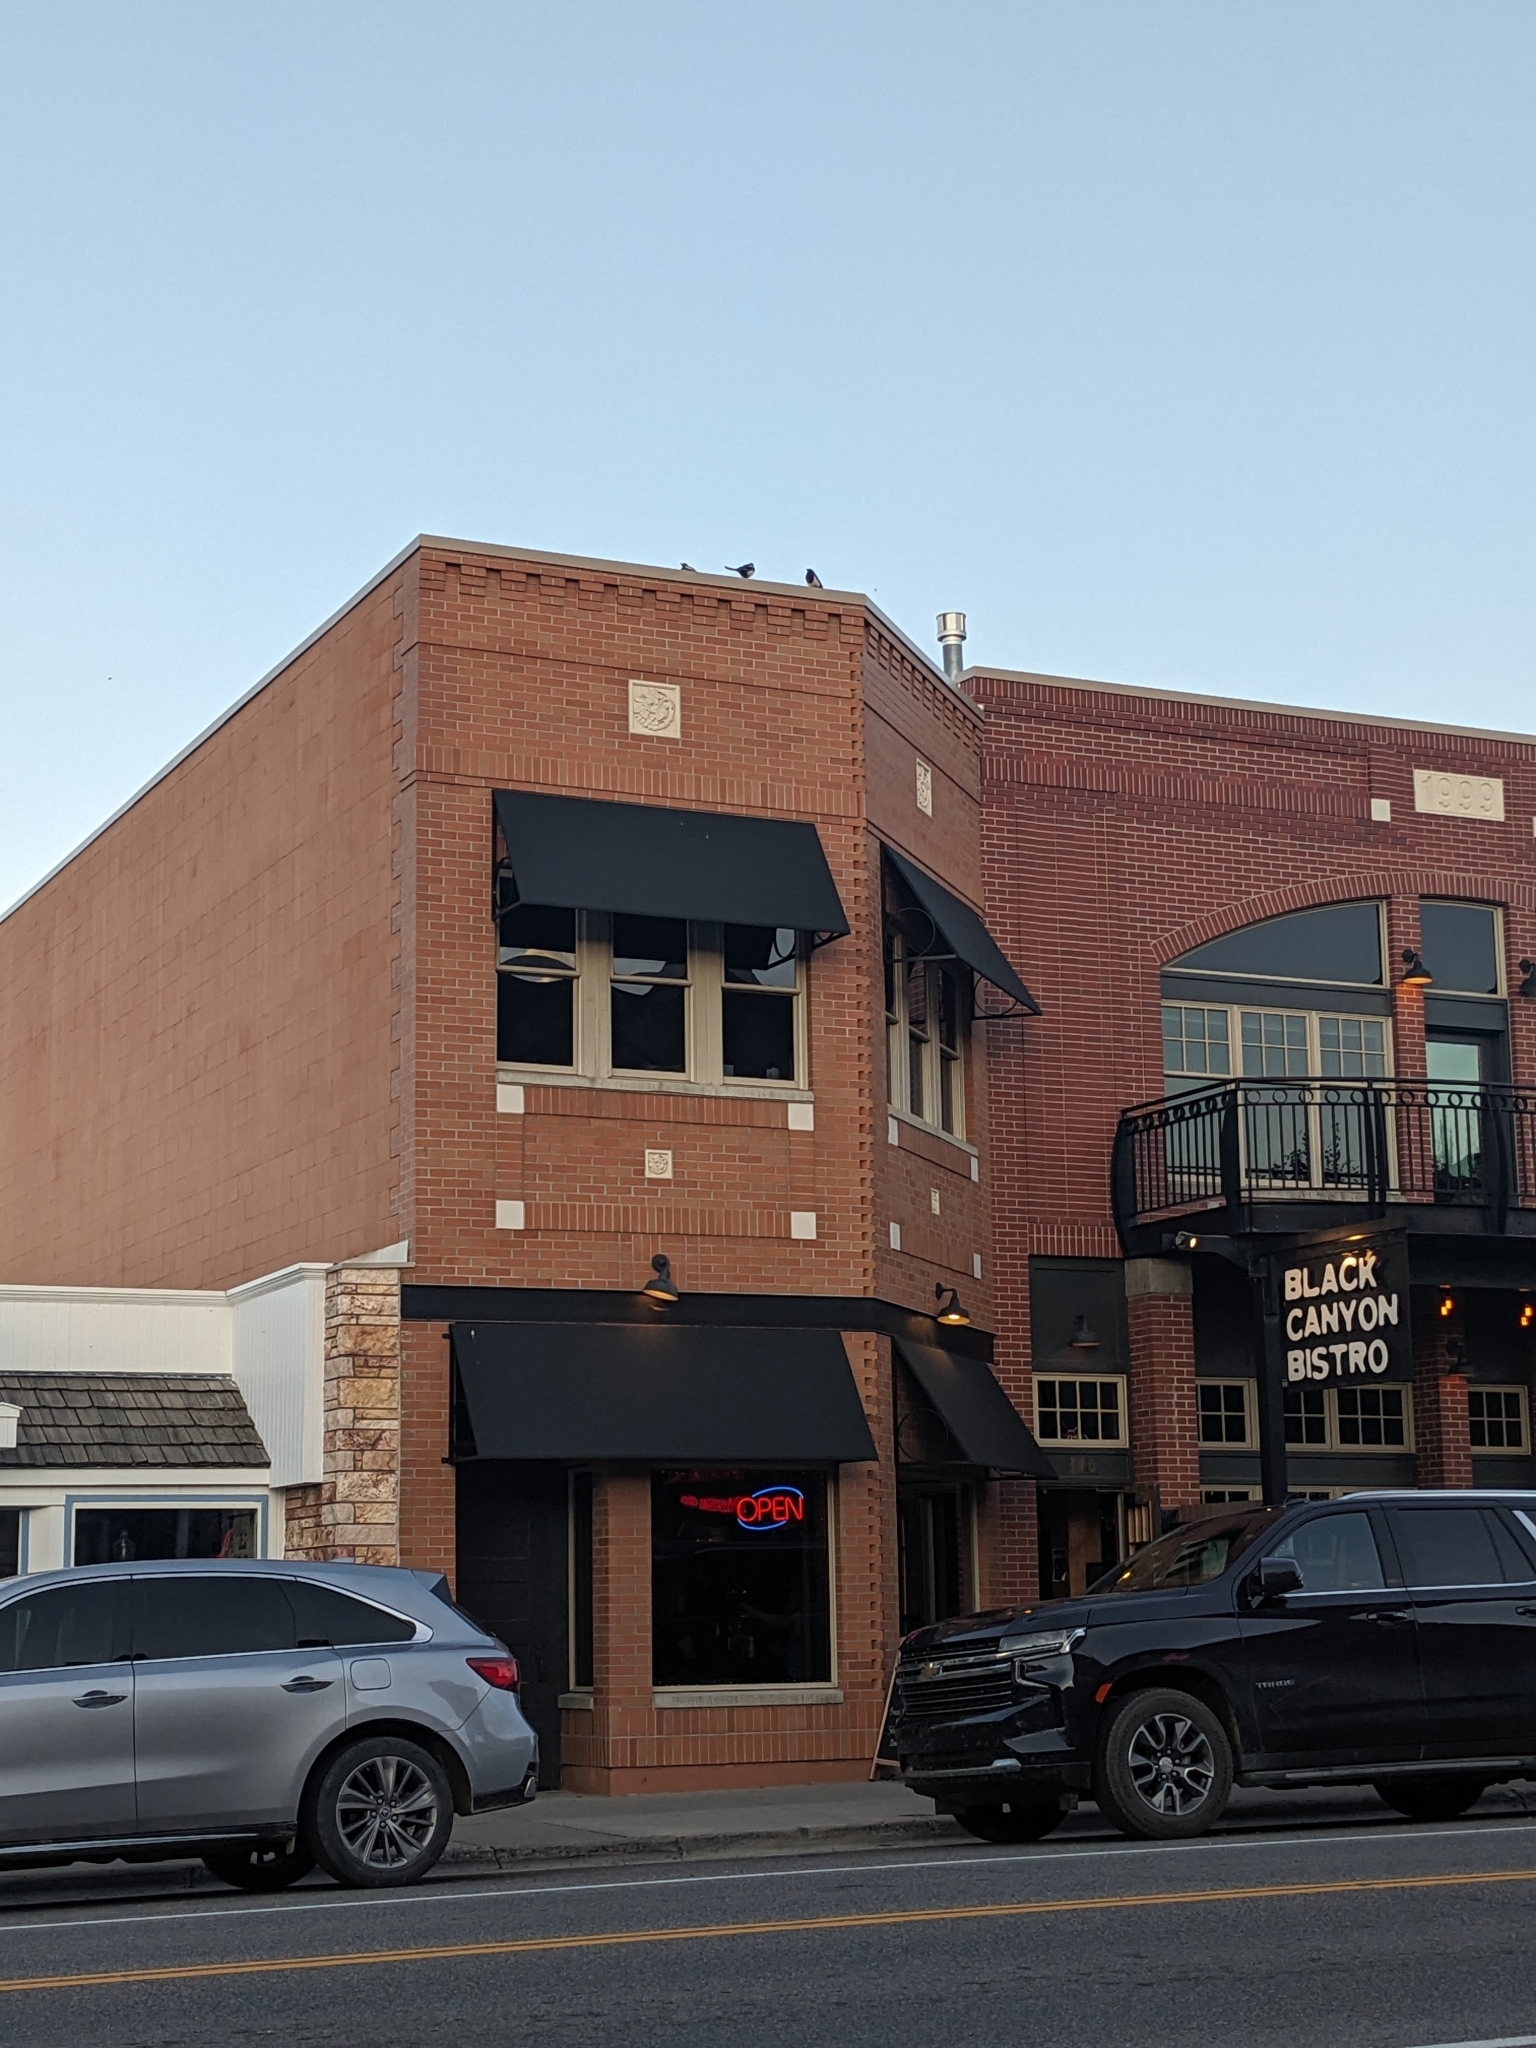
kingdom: Animalia
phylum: Chordata
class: Aves
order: Passeriformes
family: Corvidae
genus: Pica
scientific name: Pica hudsonia
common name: Black-billed magpie
